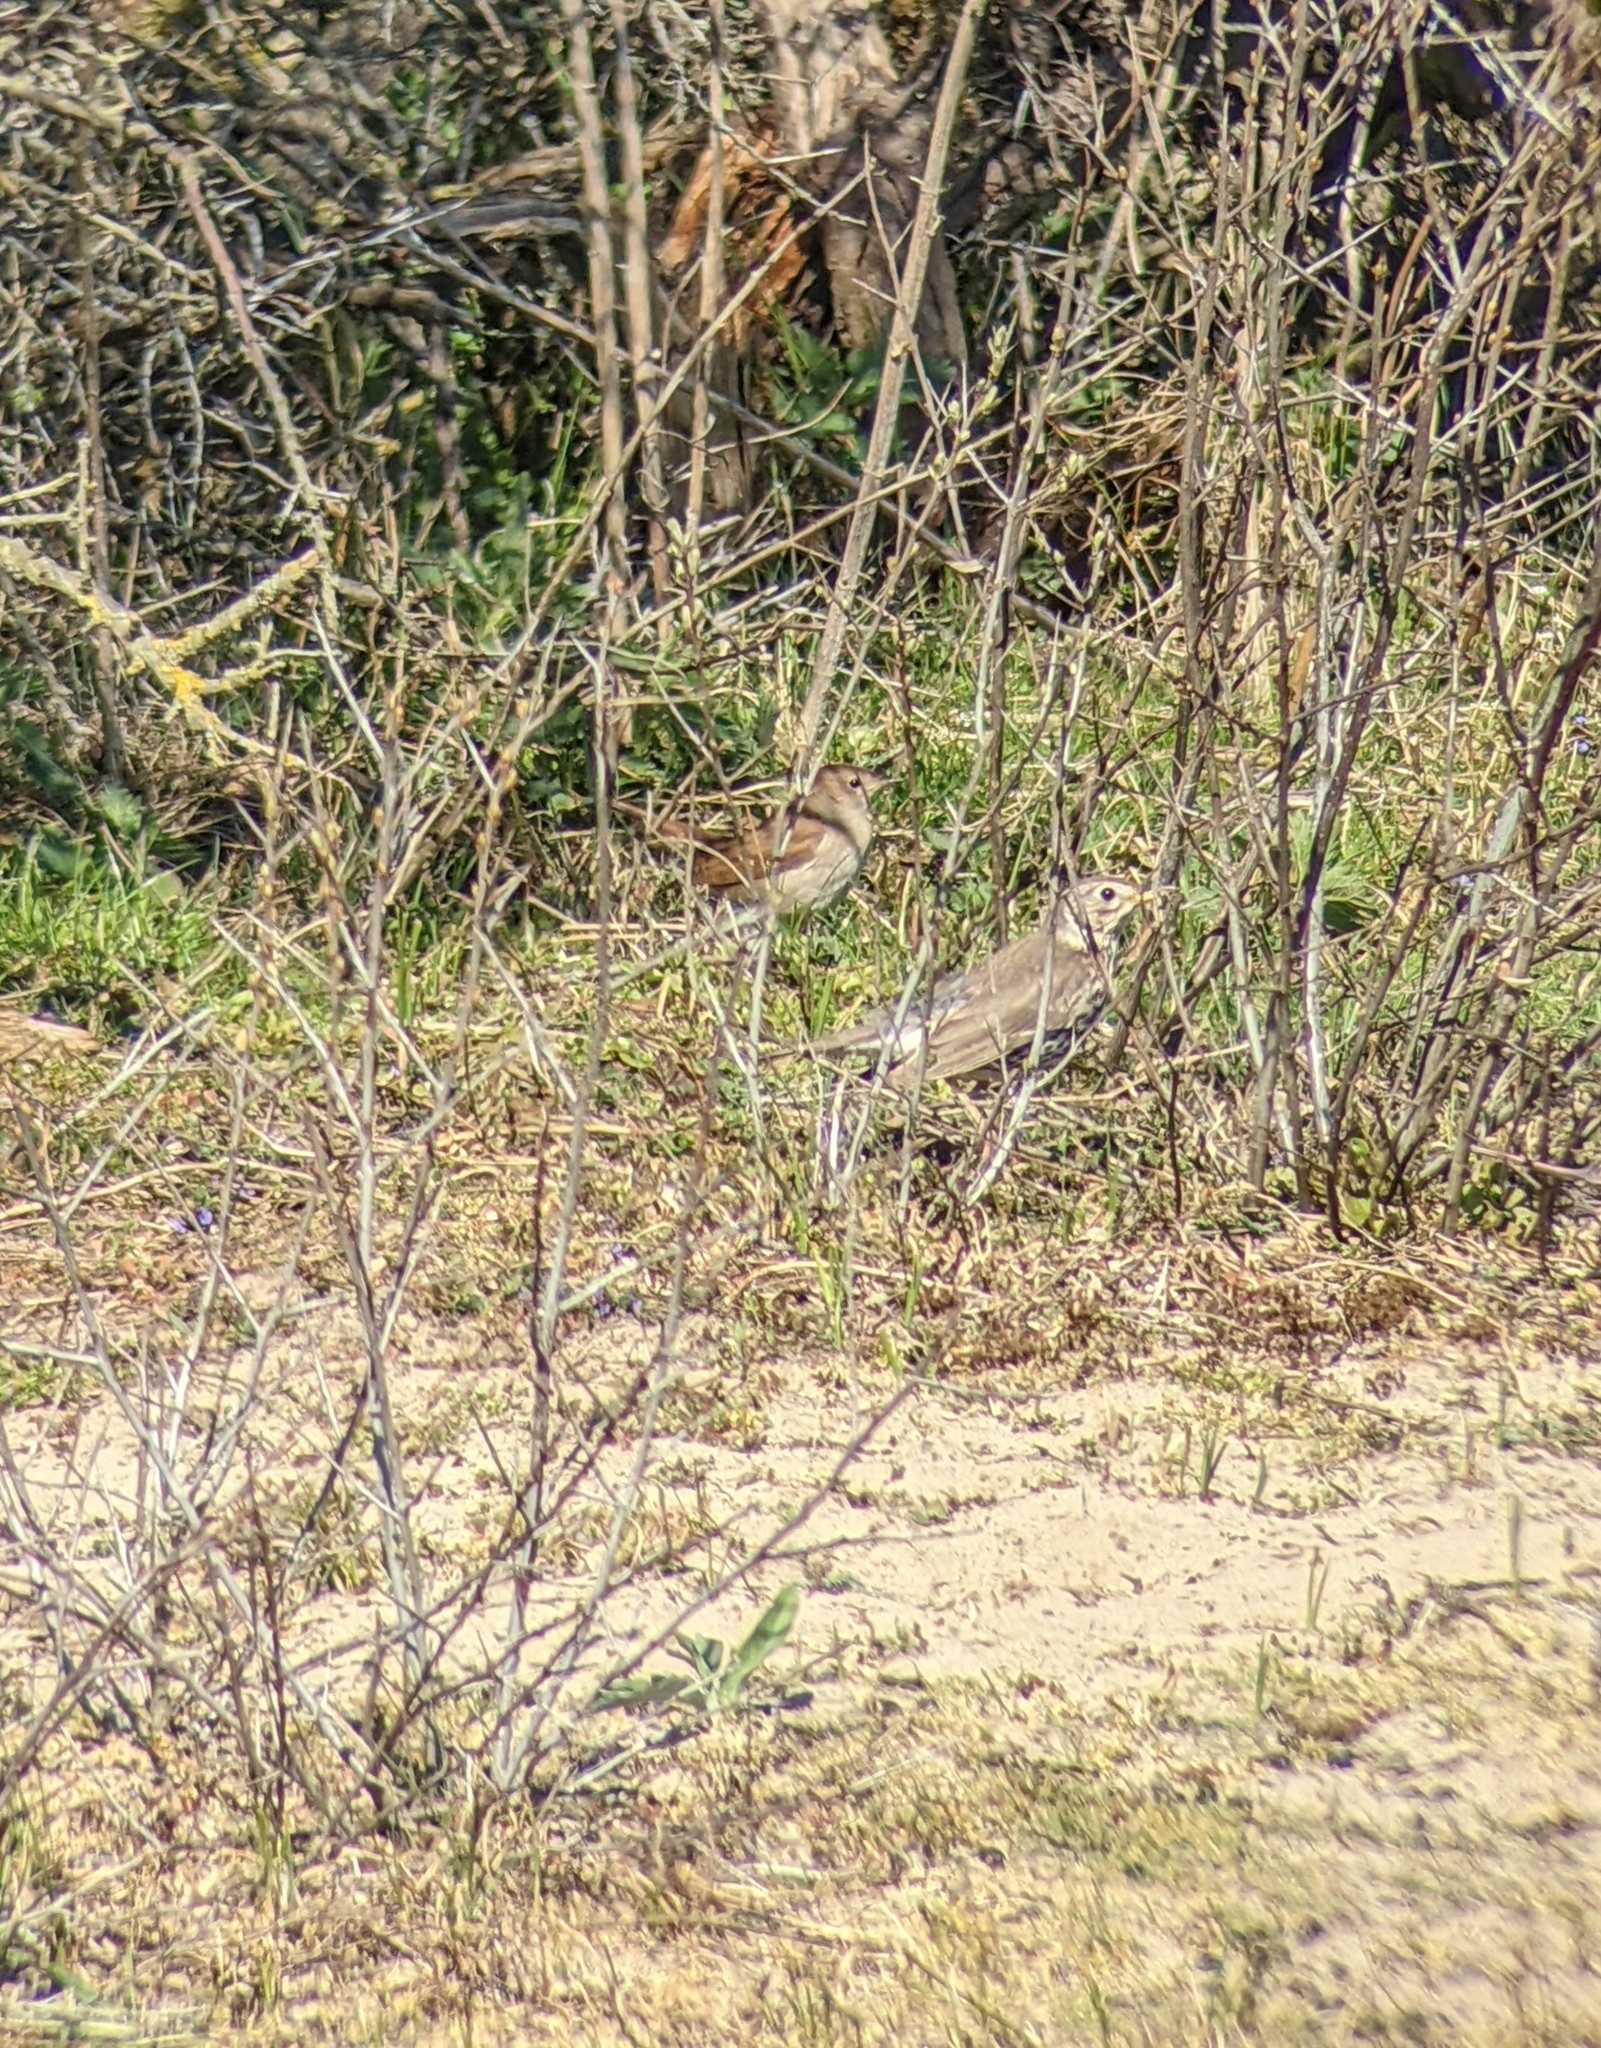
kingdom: Animalia
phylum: Chordata
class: Aves
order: Passeriformes
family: Turdidae
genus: Turdus
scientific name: Turdus philomelos
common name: Song thrush
